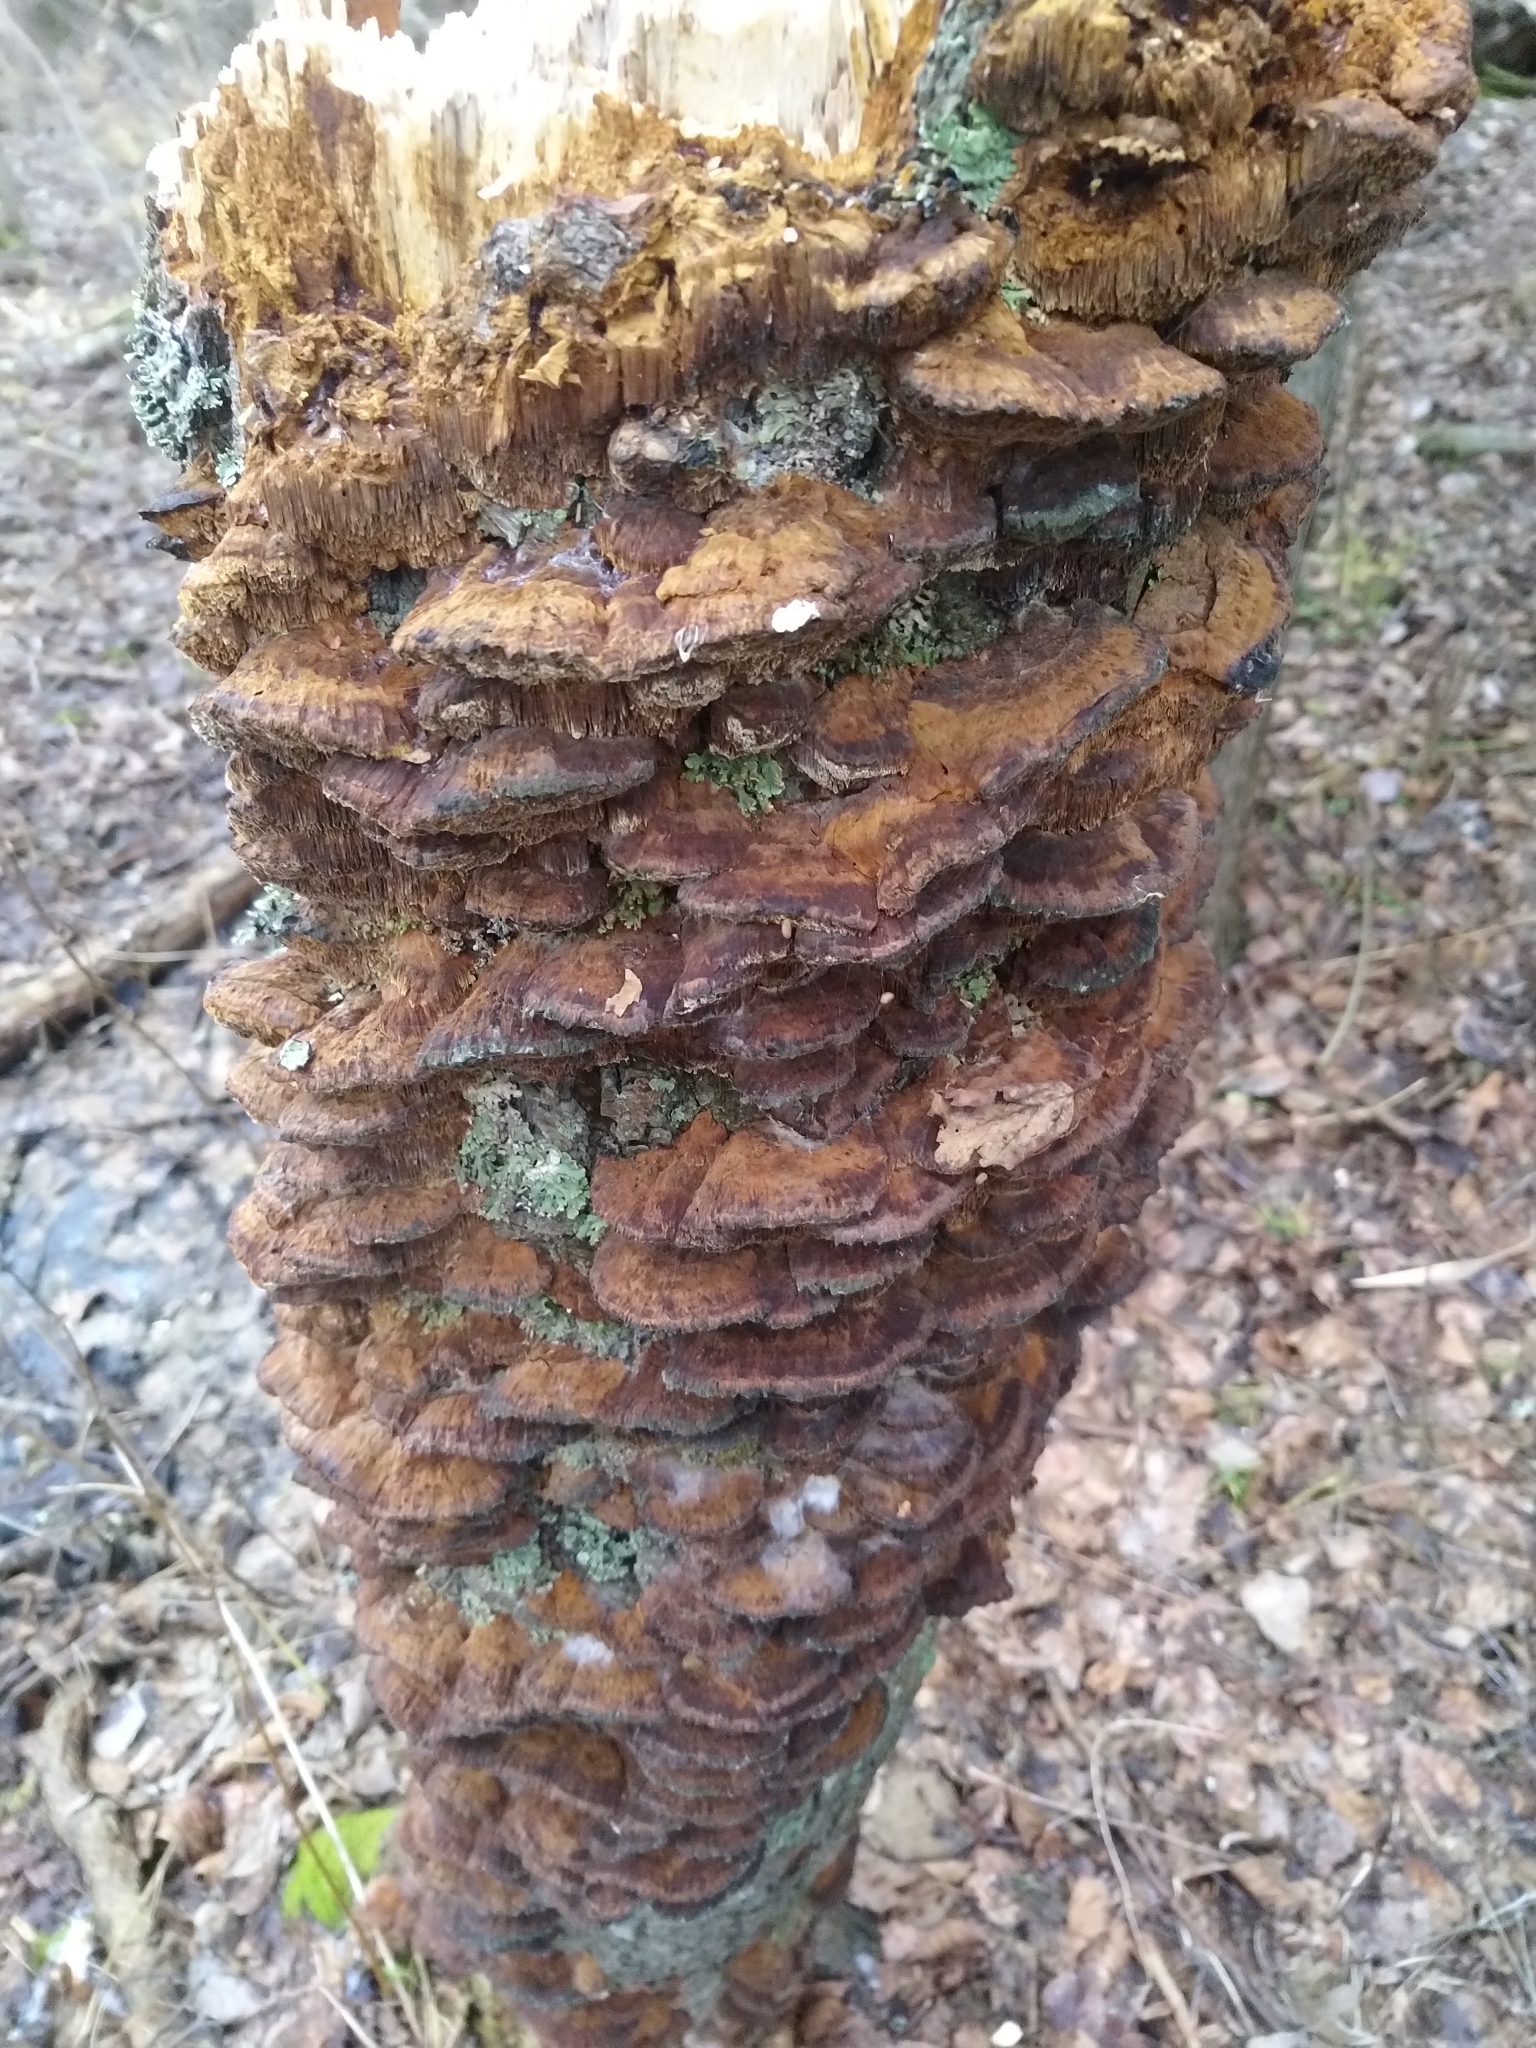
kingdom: Fungi
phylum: Basidiomycota
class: Agaricomycetes
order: Hymenochaetales
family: Hymenochaetaceae
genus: Xanthoporia
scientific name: Xanthoporia radiata
